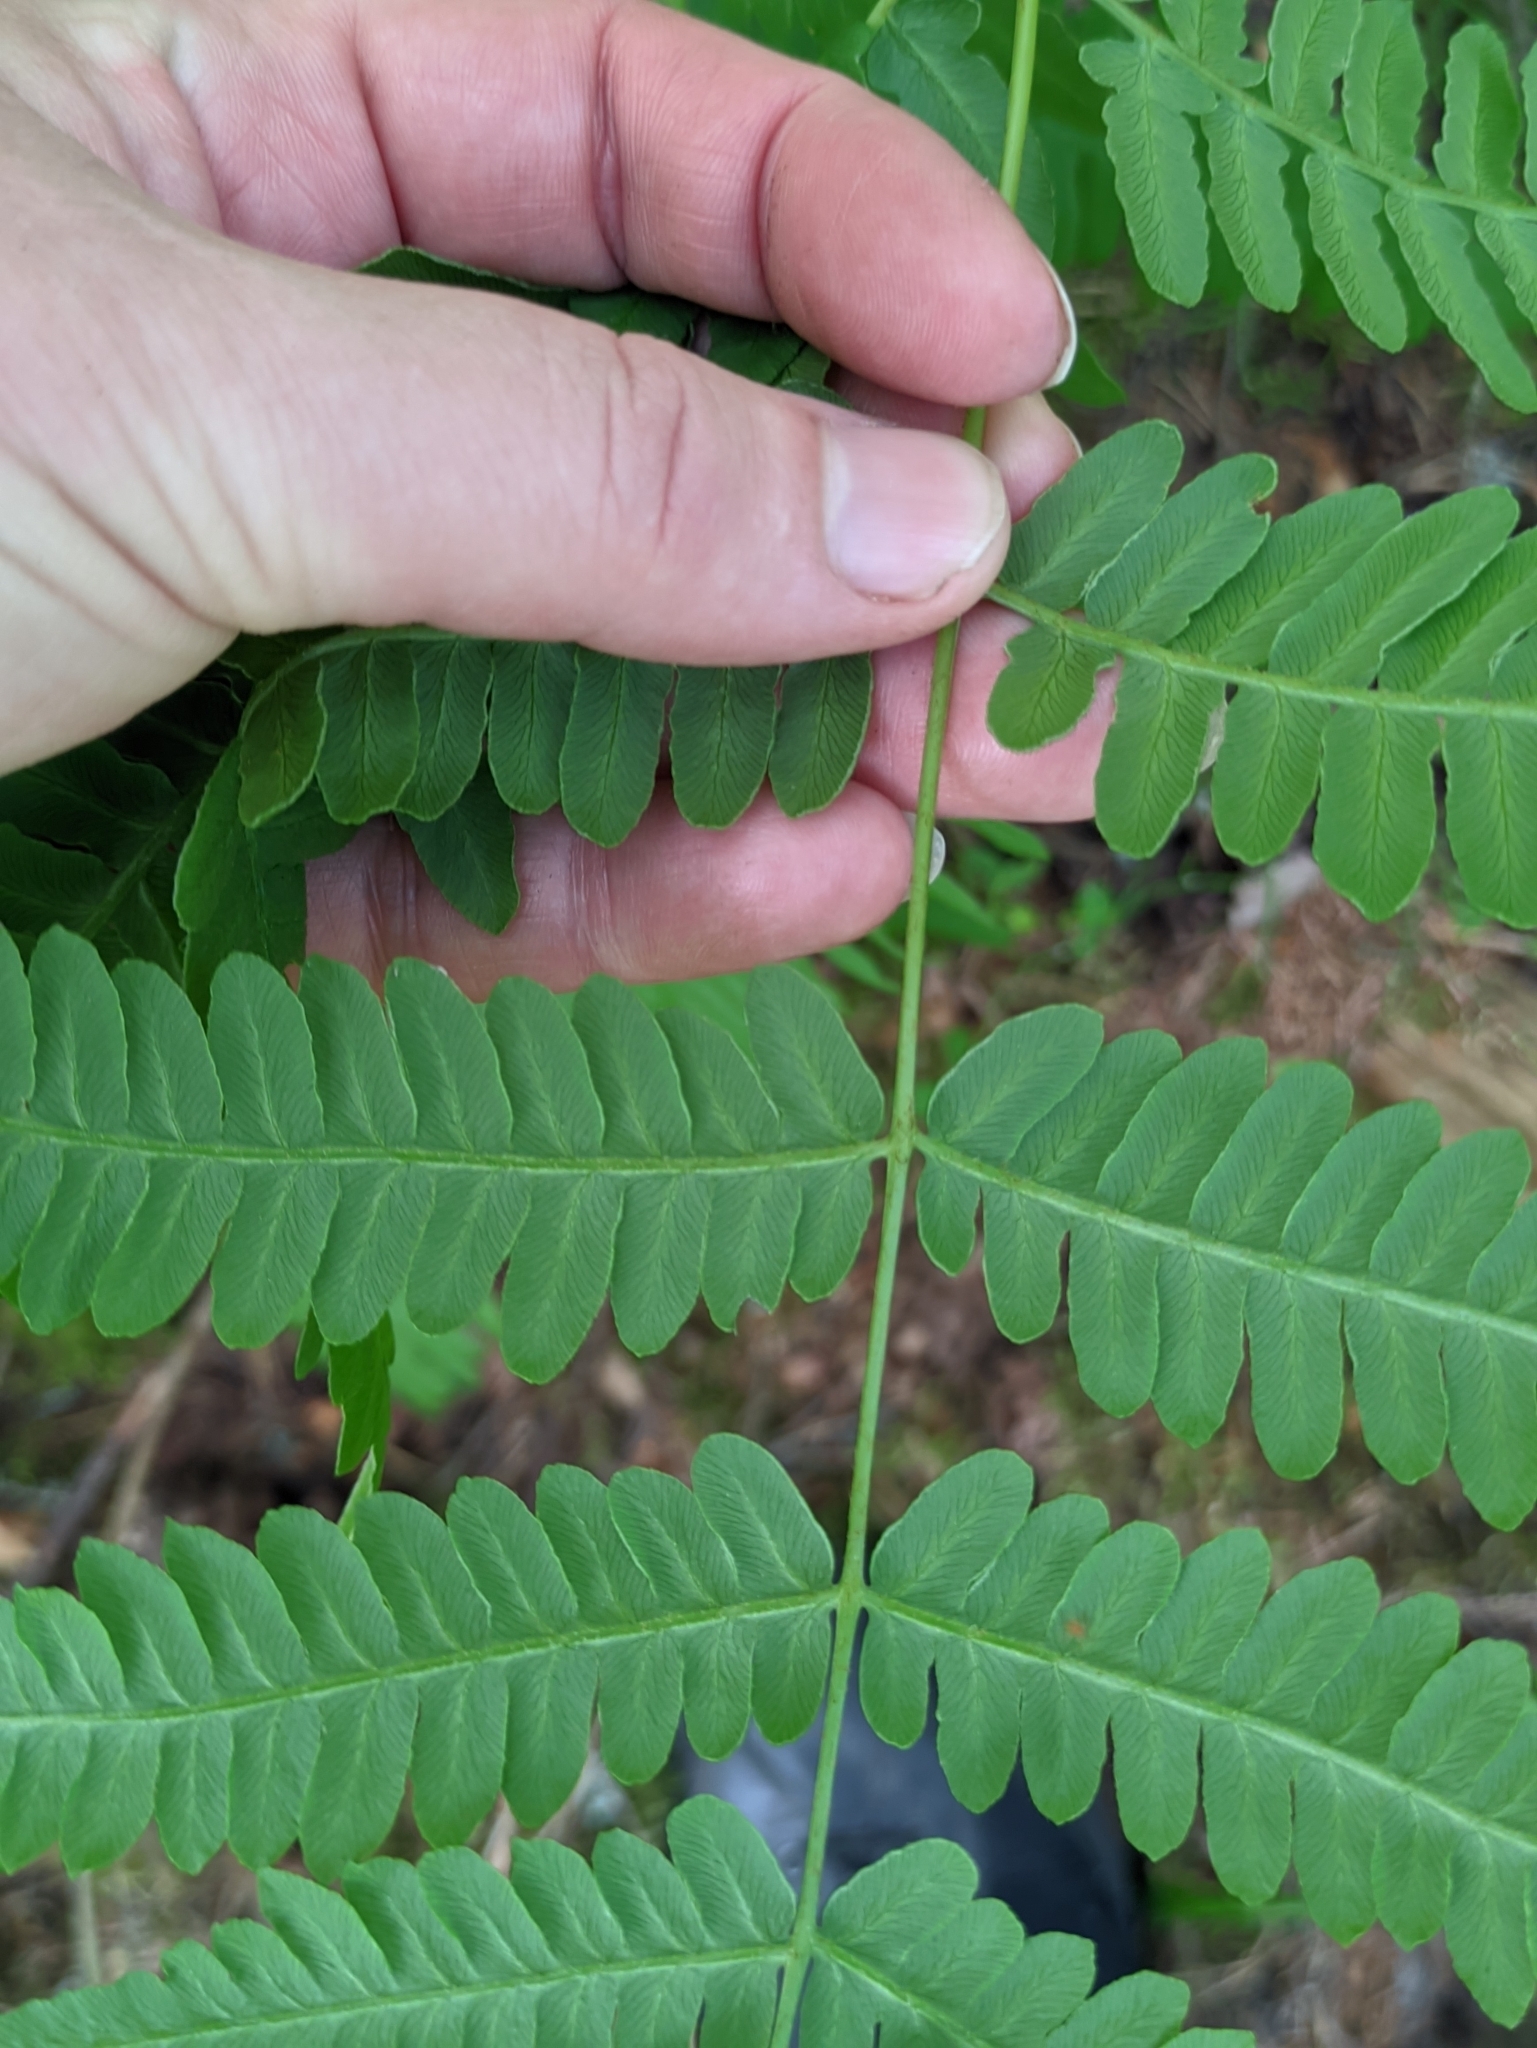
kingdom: Plantae
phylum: Tracheophyta
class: Polypodiopsida
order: Polypodiales
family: Dennstaedtiaceae
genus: Pteridium
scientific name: Pteridium aquilinum
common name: Bracken
